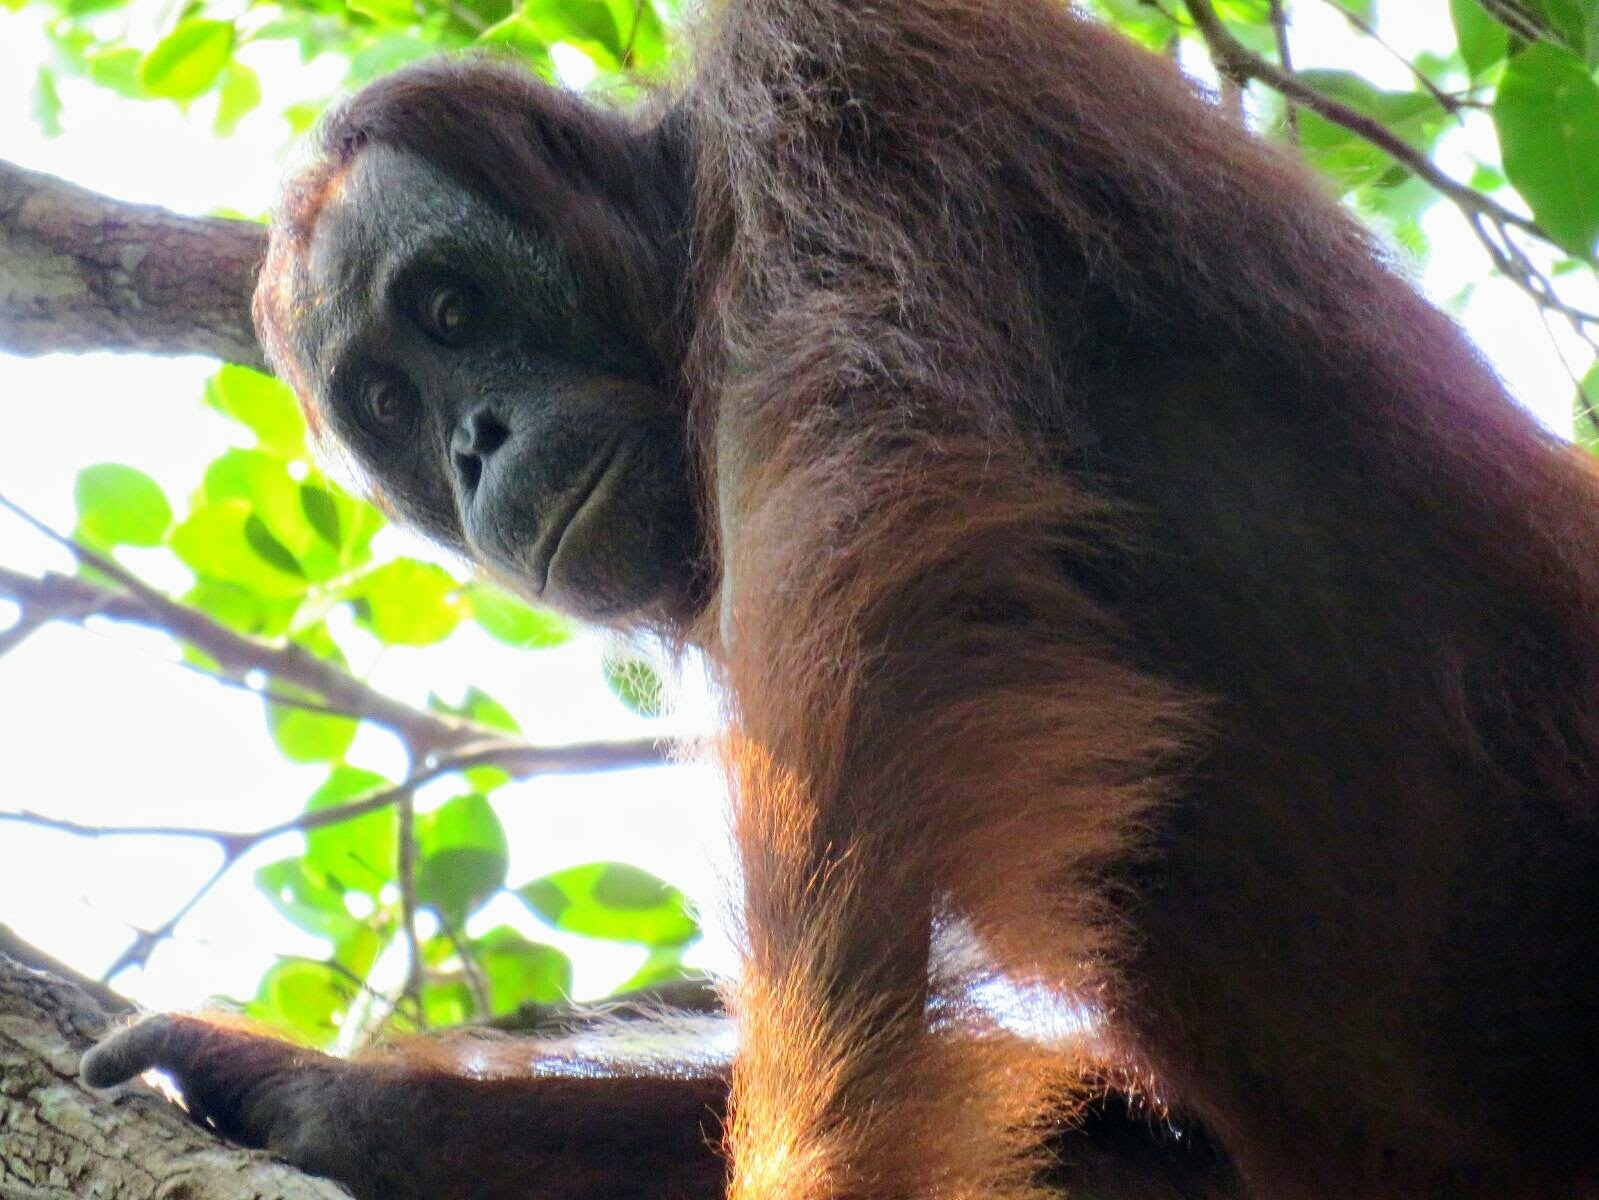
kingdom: Animalia
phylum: Chordata
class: Mammalia
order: Primates
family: Hominidae
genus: Pongo
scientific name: Pongo pygmaeus
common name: Bornean orangutan
